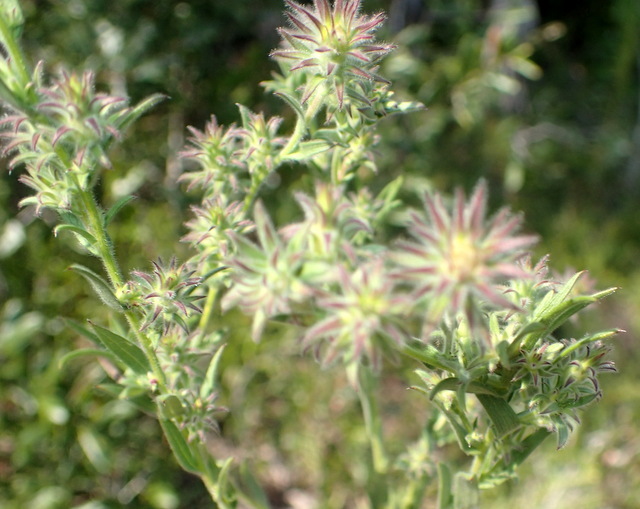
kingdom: Plantae
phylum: Tracheophyta
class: Magnoliopsida
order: Asterales
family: Asteraceae
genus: Symphyotrichum
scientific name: Symphyotrichum plumosum
